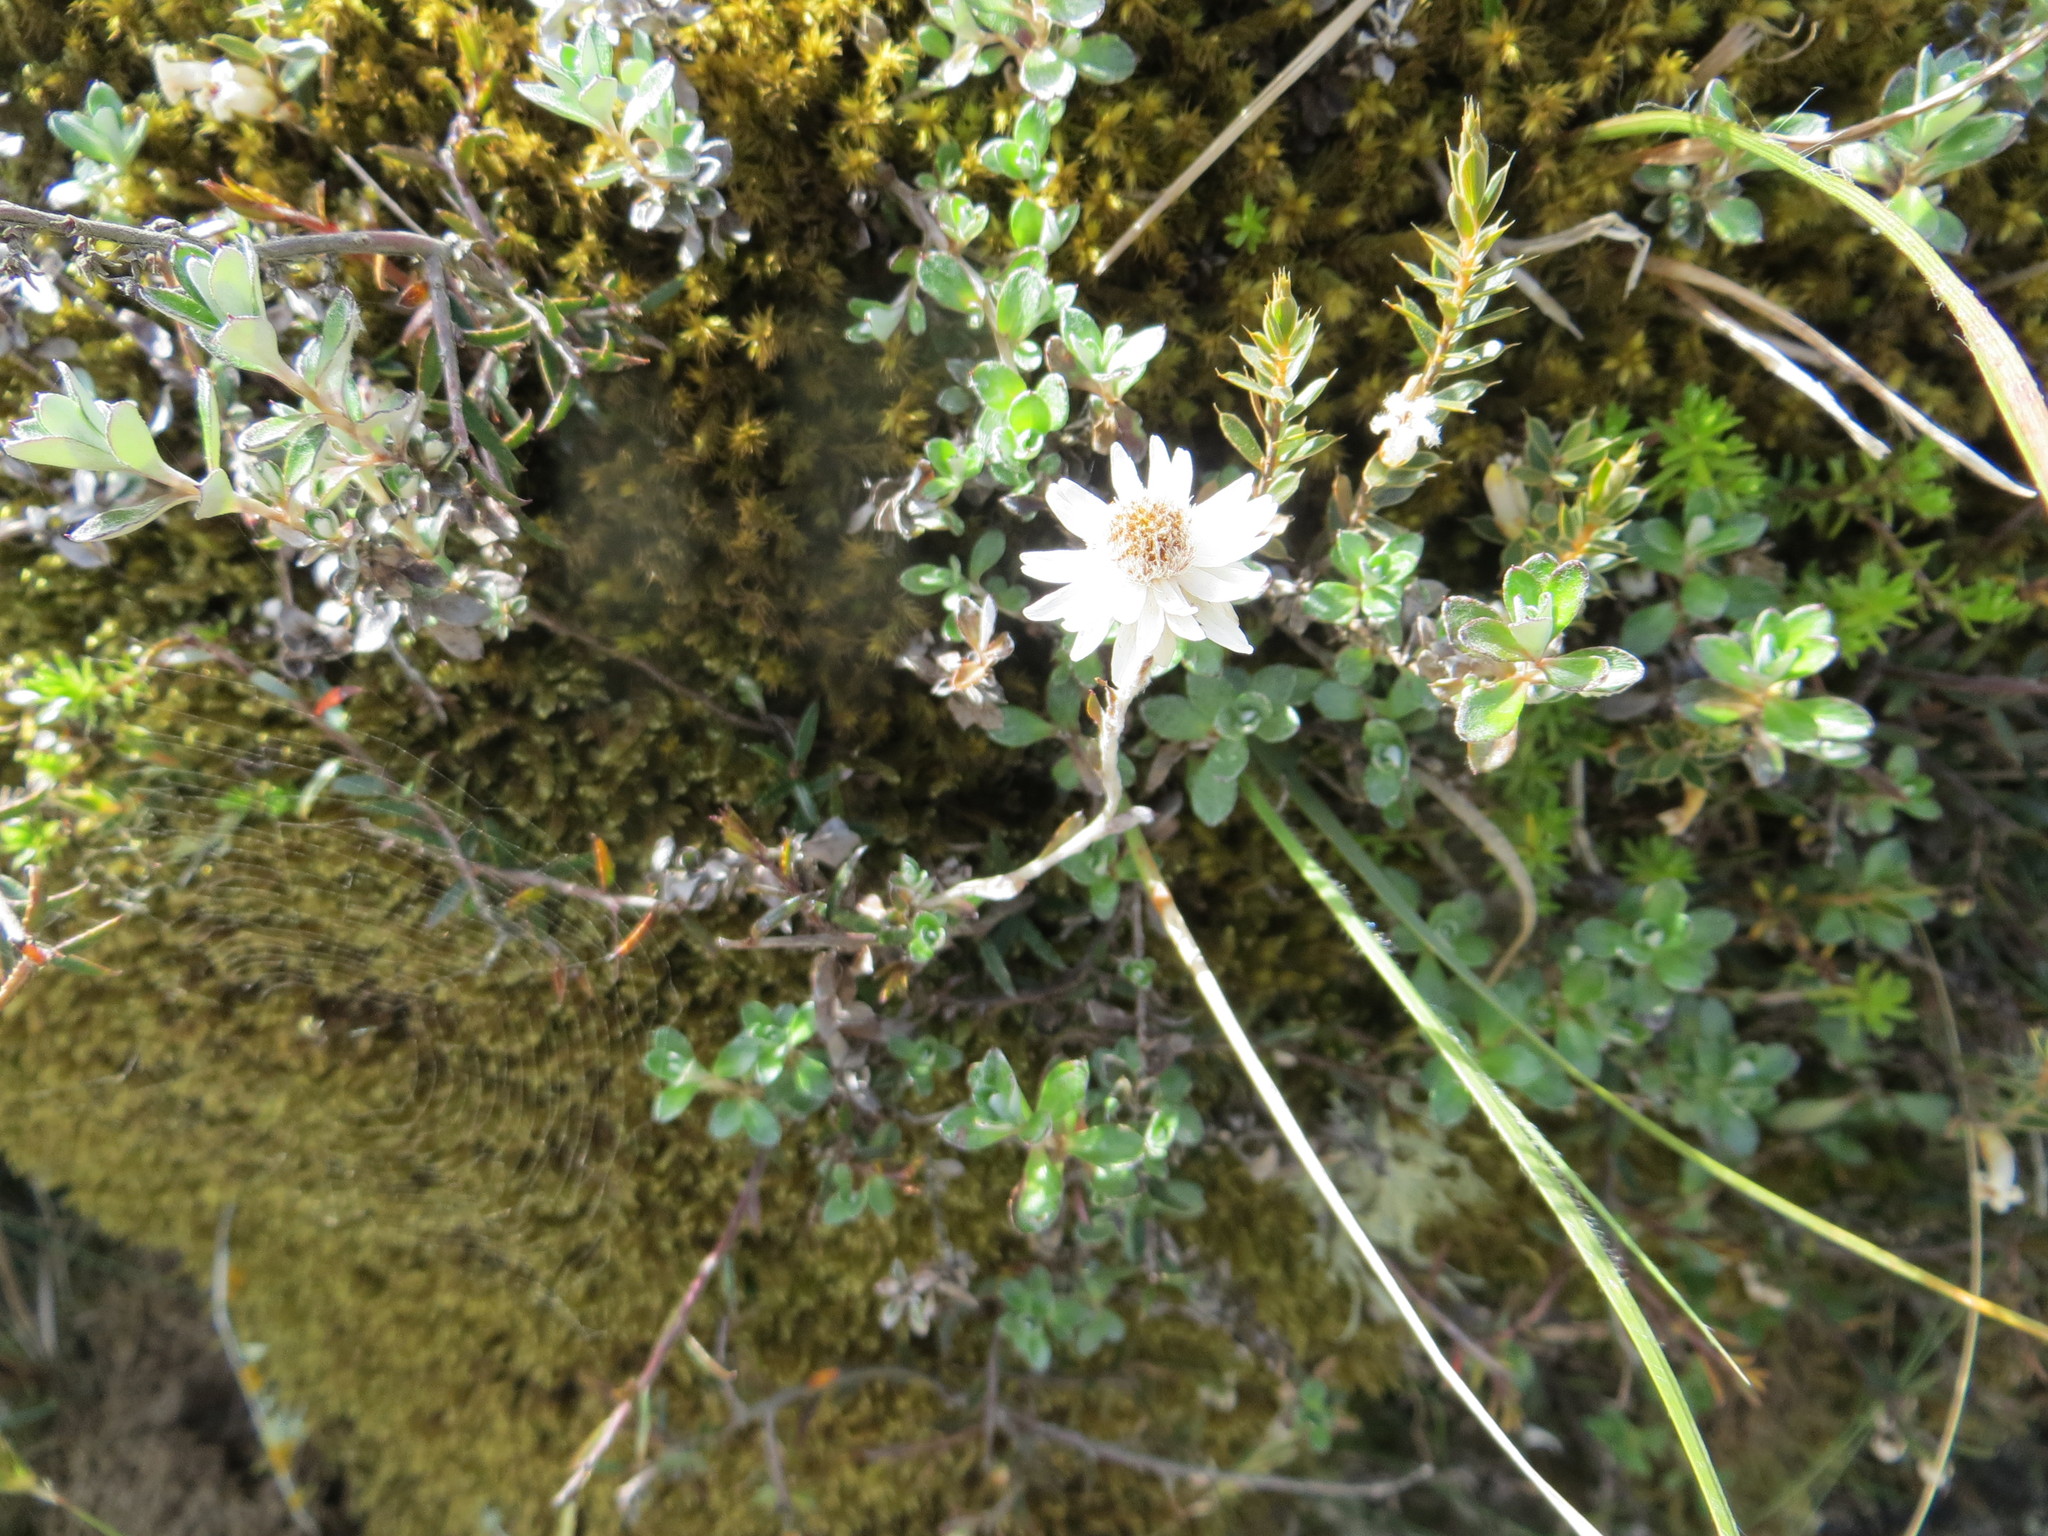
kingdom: Plantae
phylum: Tracheophyta
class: Magnoliopsida
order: Asterales
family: Asteraceae
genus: Anaphalioides
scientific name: Anaphalioides bellidioides
